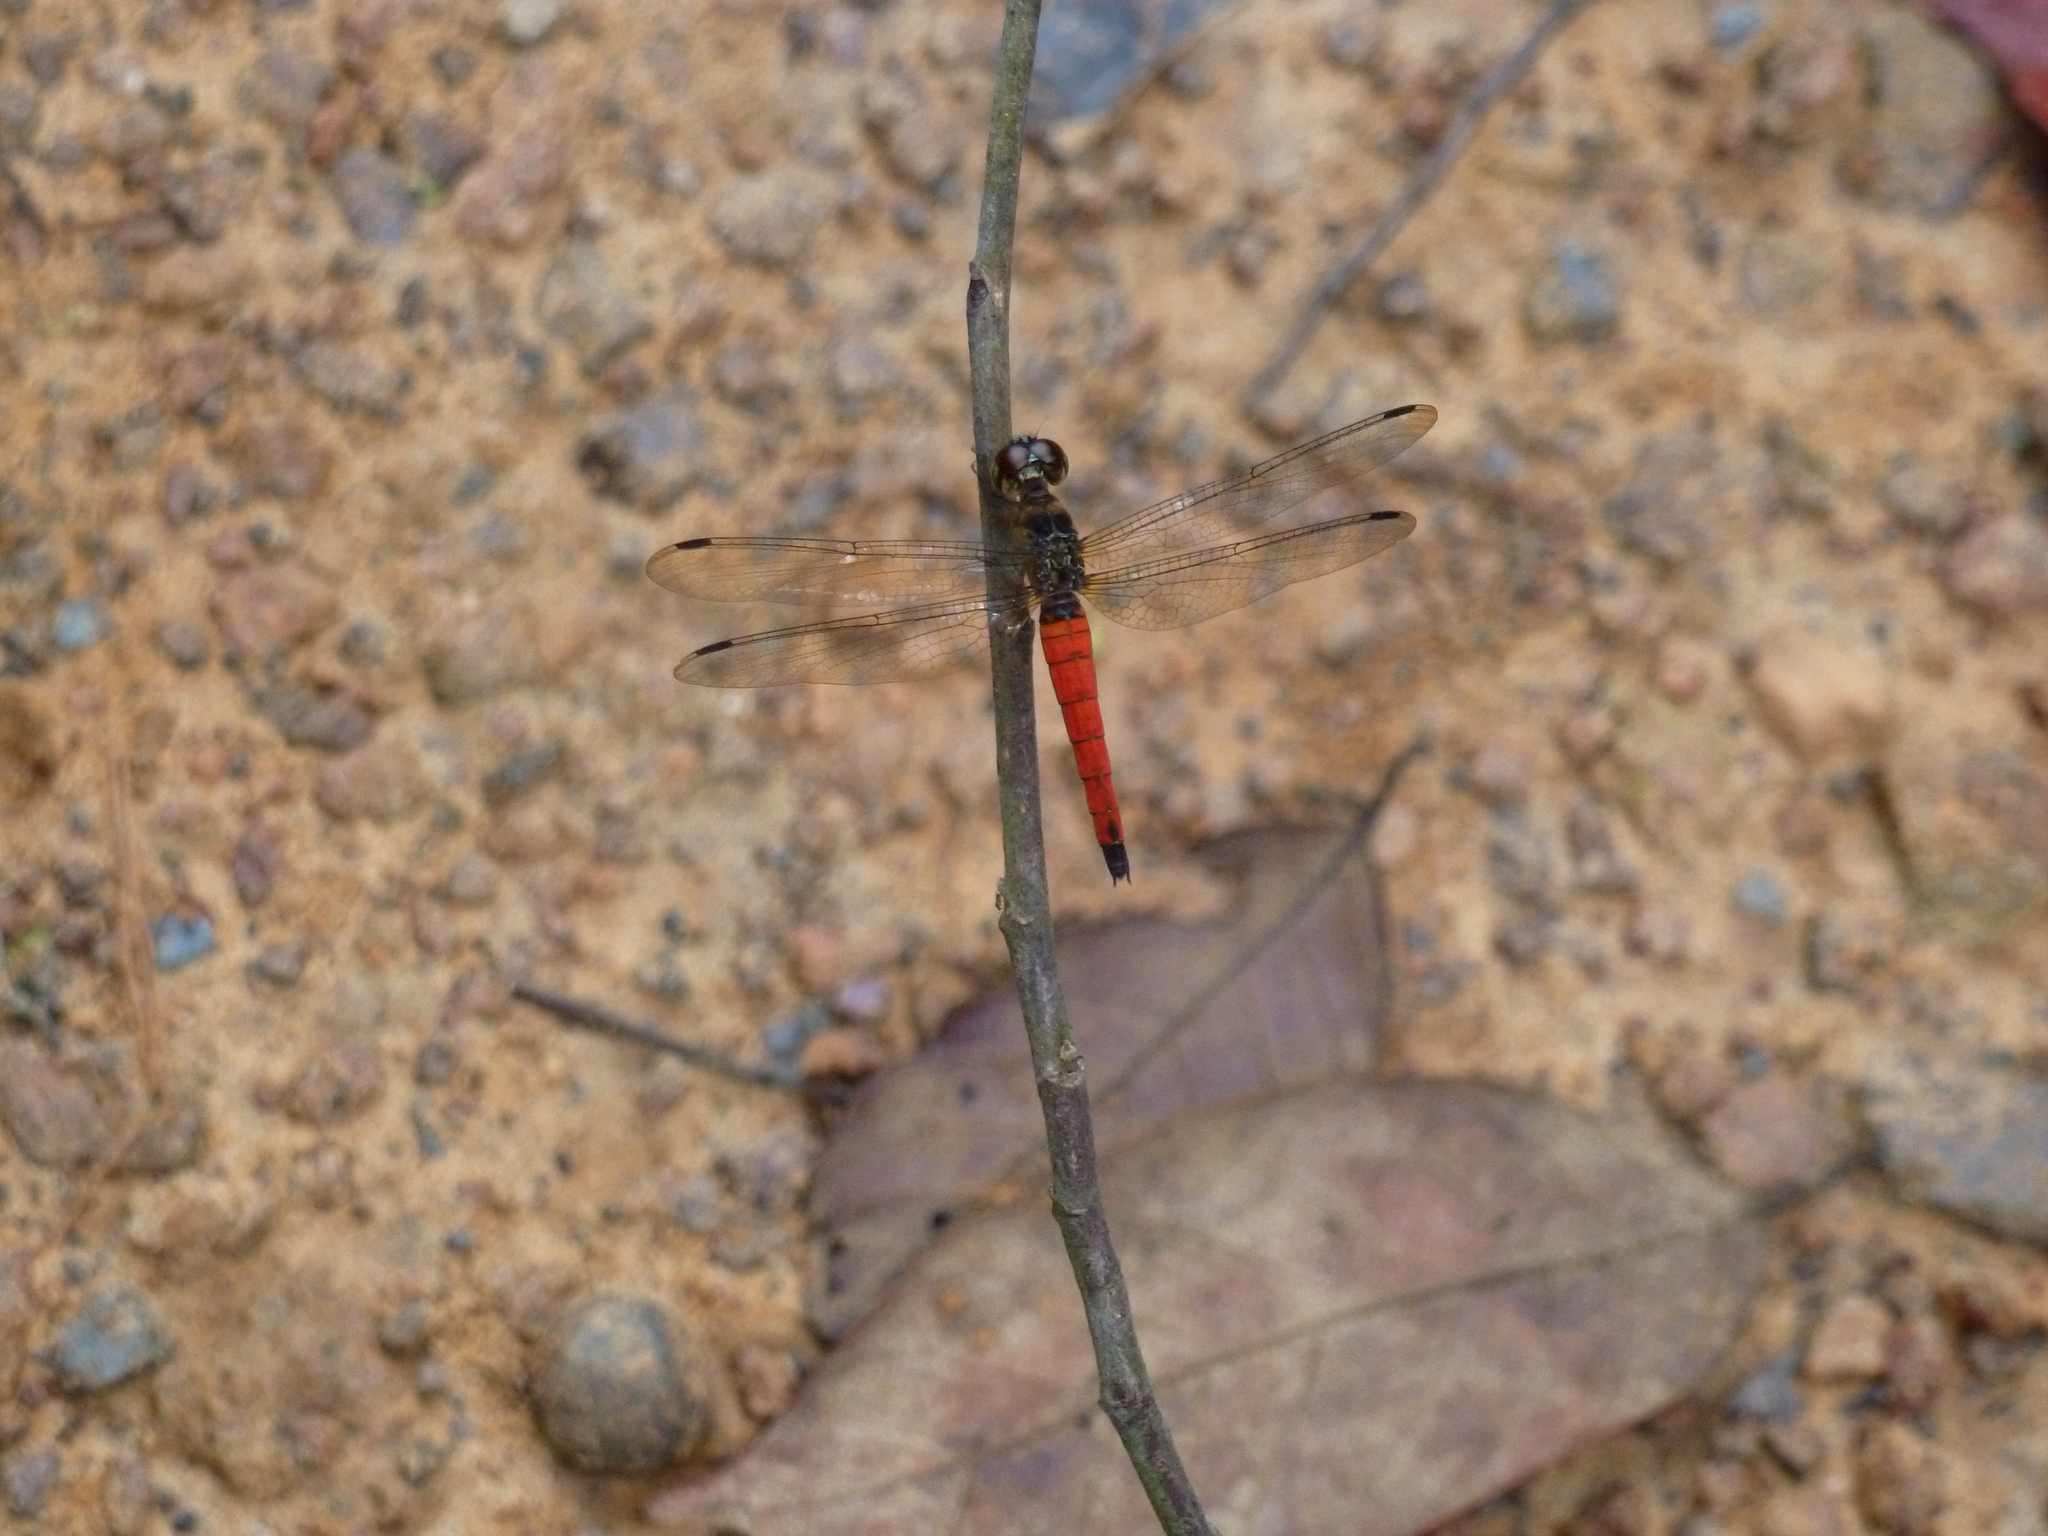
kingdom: Animalia
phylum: Arthropoda
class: Insecta
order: Odonata
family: Libellulidae
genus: Orchithemis
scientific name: Orchithemis pulcherrima
